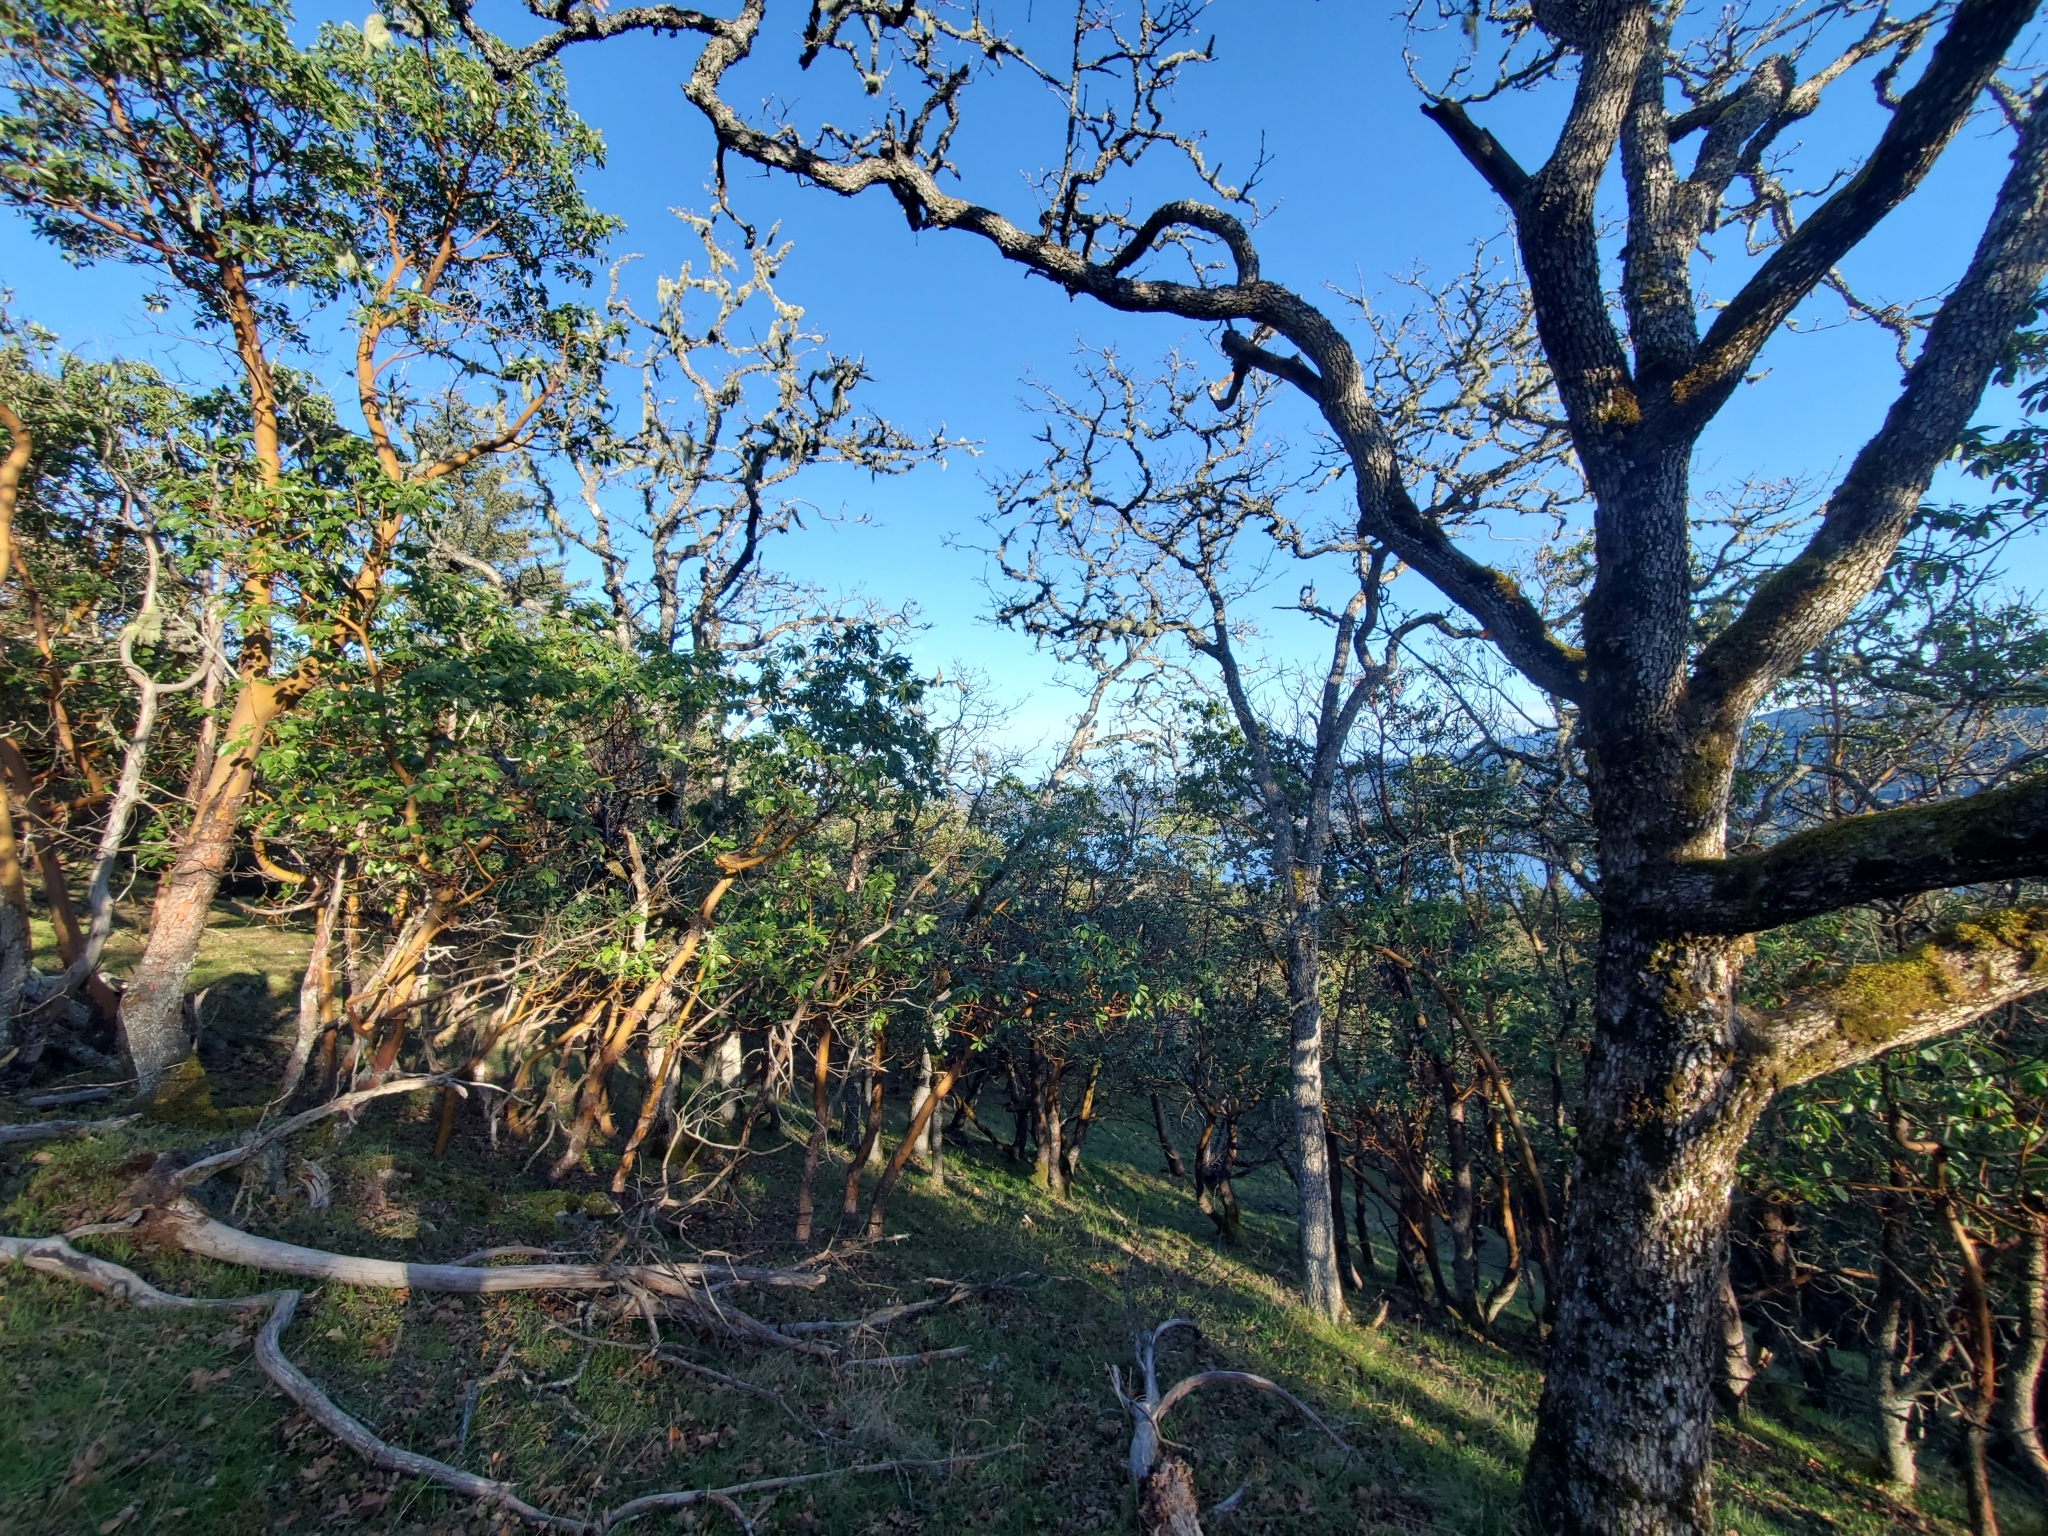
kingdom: Plantae
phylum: Tracheophyta
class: Magnoliopsida
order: Fagales
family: Fagaceae
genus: Quercus
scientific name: Quercus garryana
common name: Garry oak
